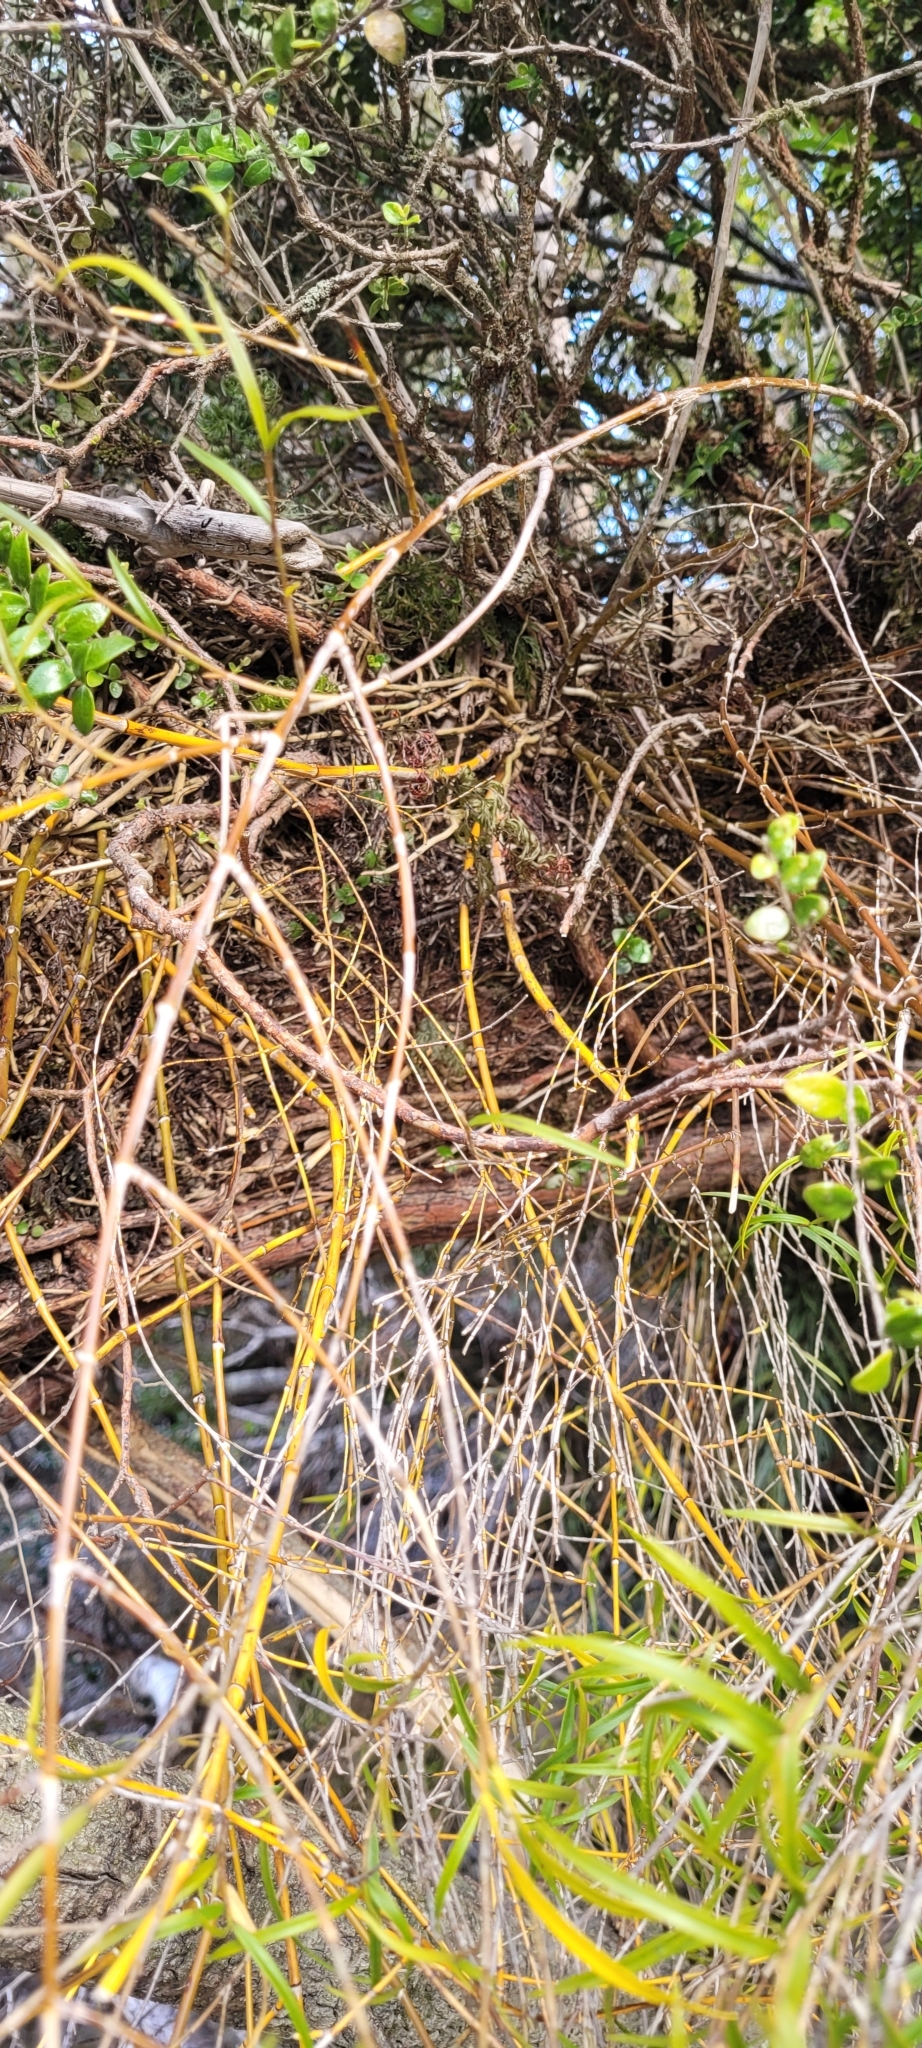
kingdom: Plantae
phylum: Tracheophyta
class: Liliopsida
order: Asparagales
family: Orchidaceae
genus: Dendrobium
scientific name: Dendrobium cunninghamii
